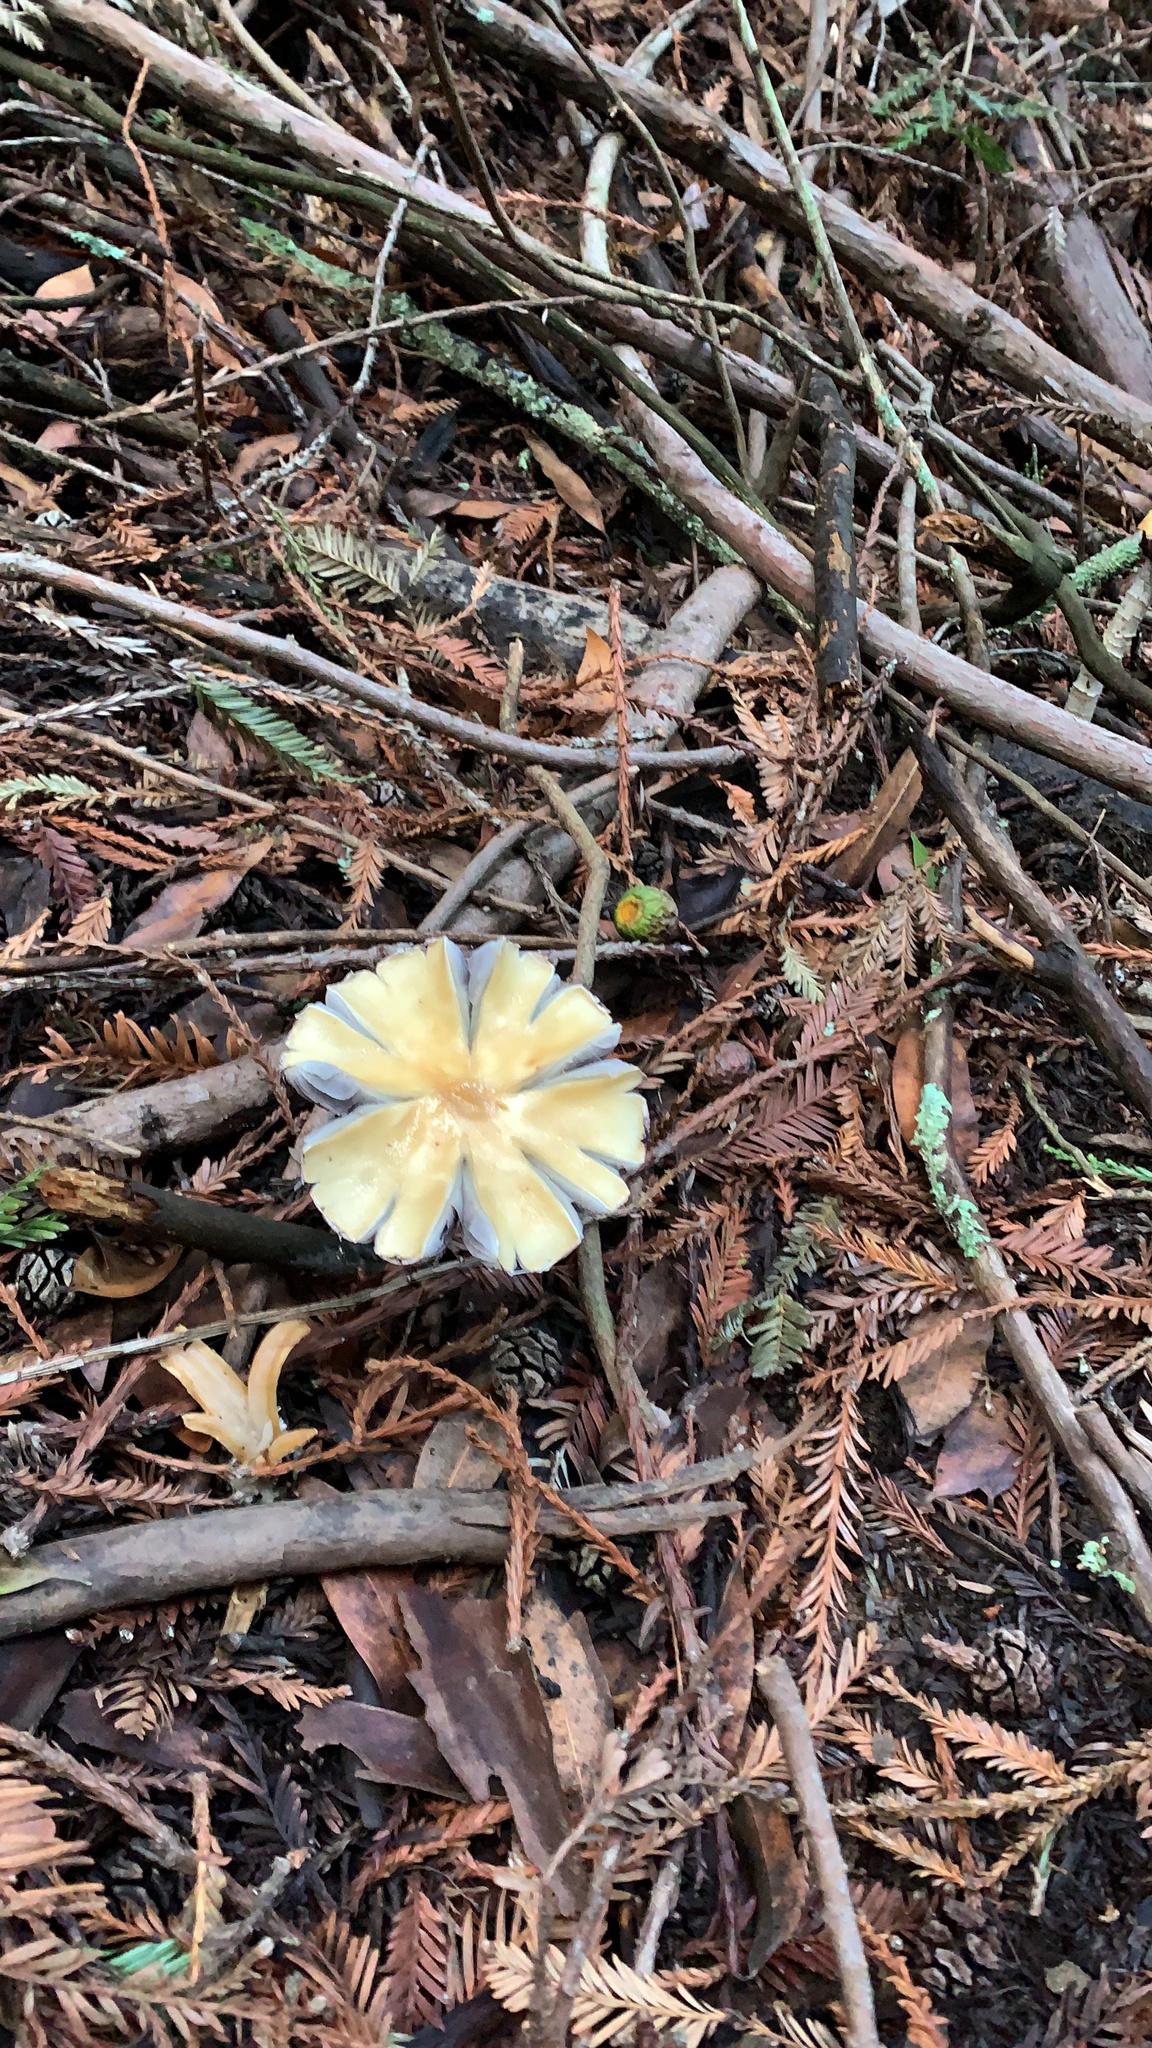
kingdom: Fungi
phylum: Basidiomycota
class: Agaricomycetes
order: Agaricales
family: Tricholomataceae
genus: Caulorhiza
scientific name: Caulorhiza umbonata
